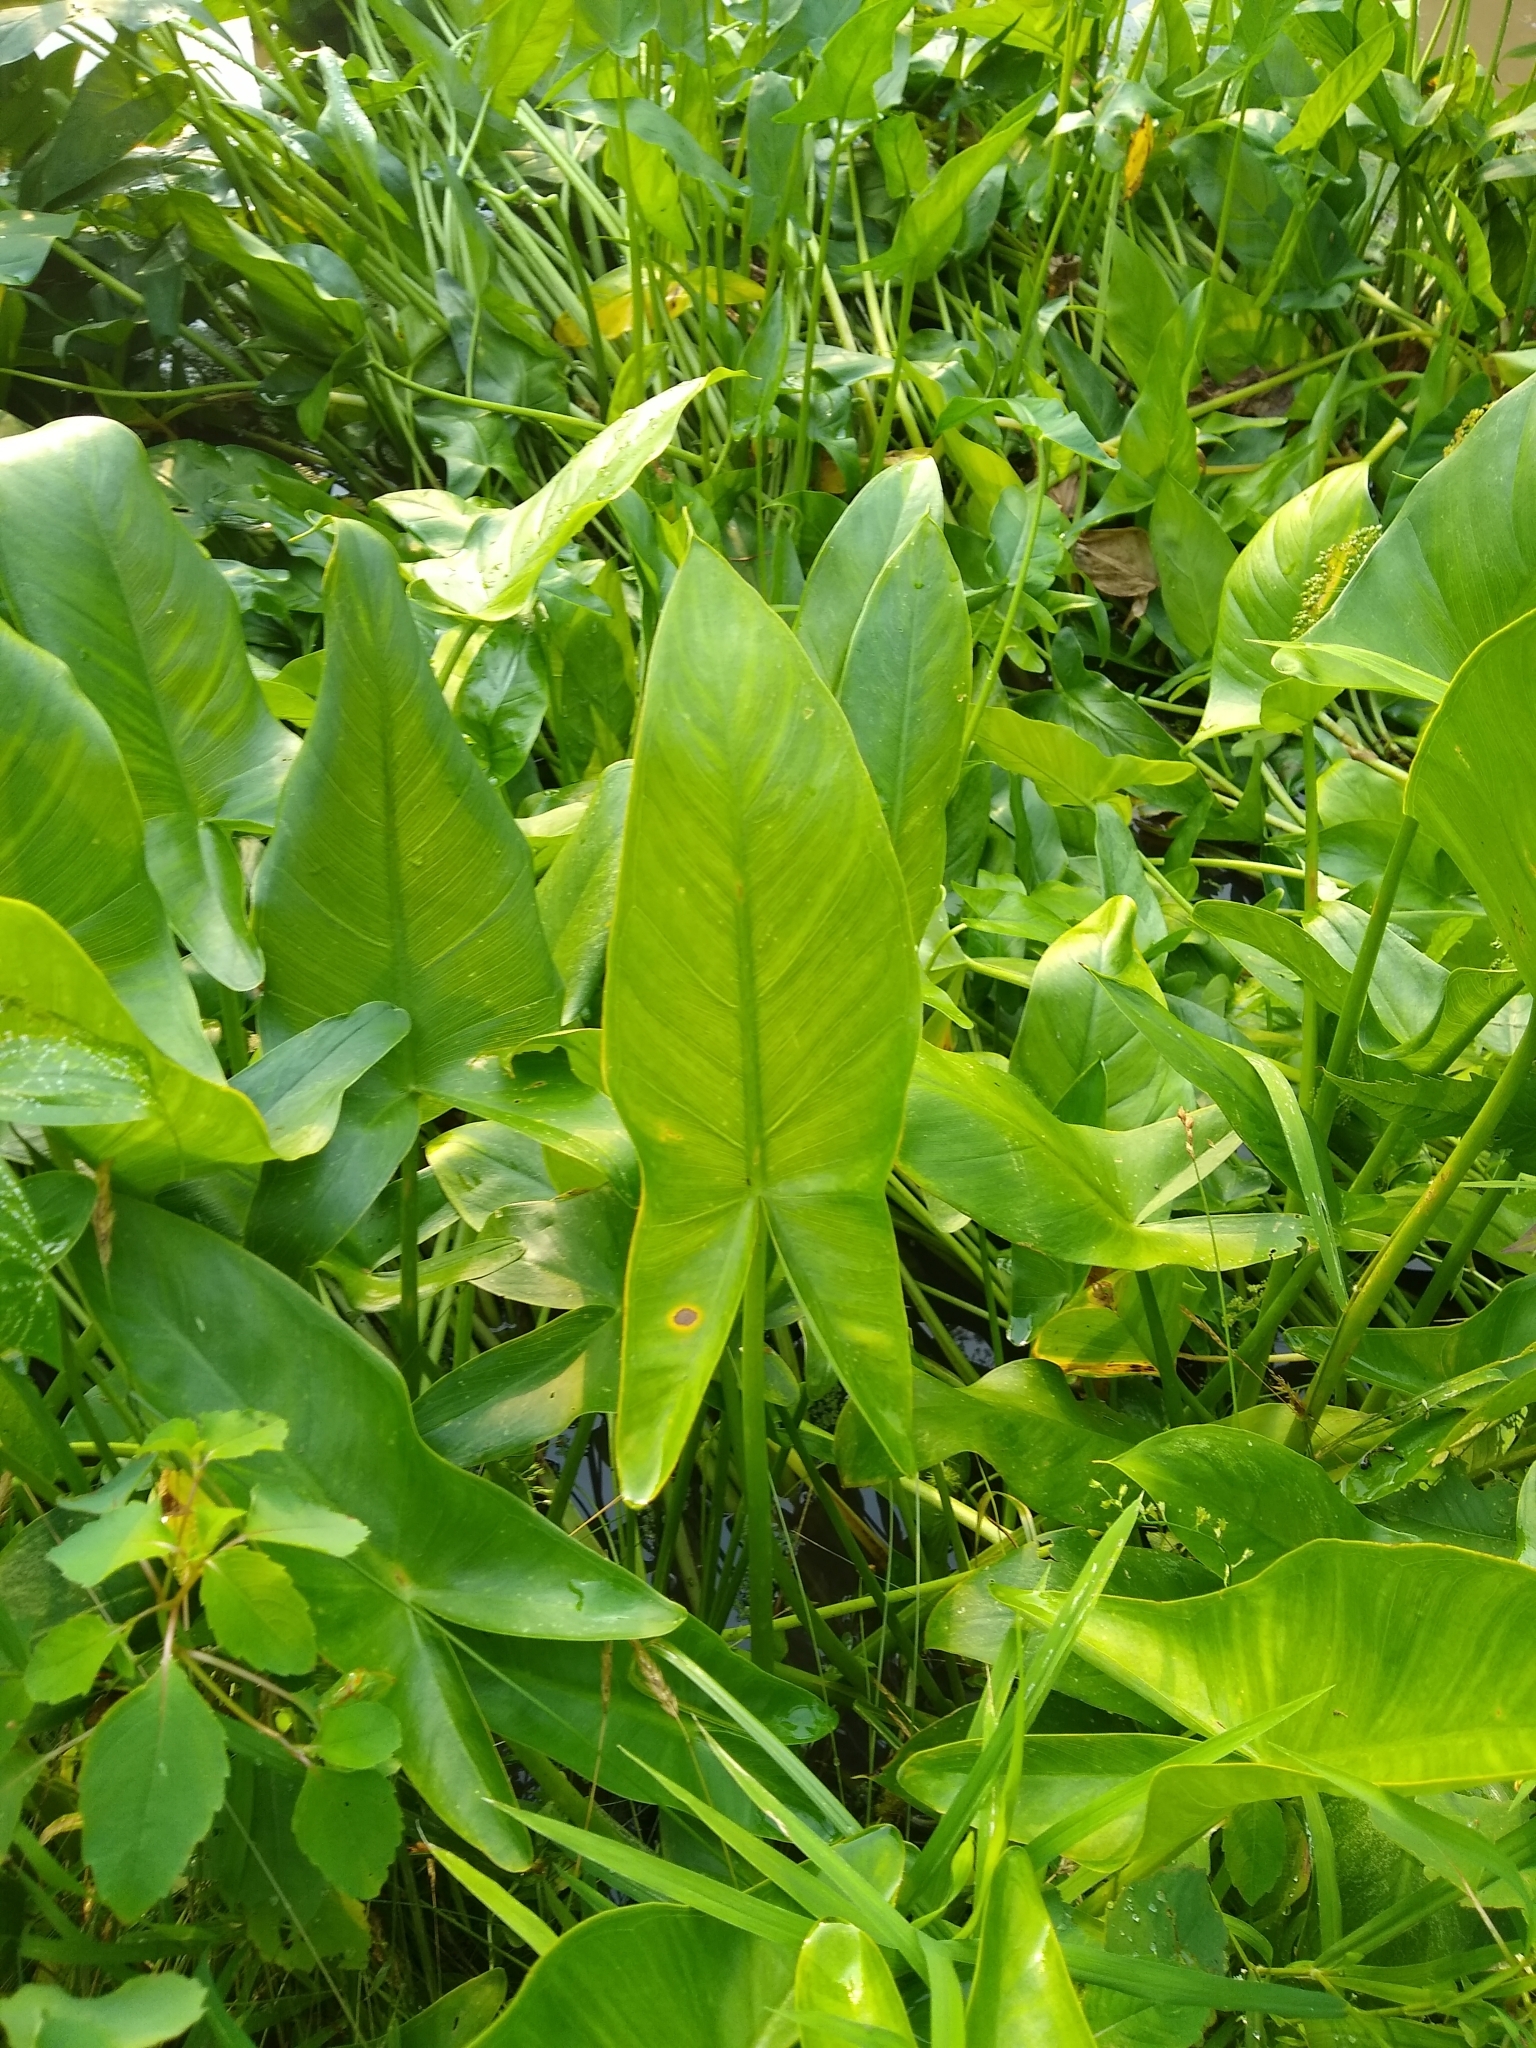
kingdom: Plantae
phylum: Tracheophyta
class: Liliopsida
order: Alismatales
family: Araceae
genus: Peltandra
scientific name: Peltandra virginica
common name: Arrow arum
